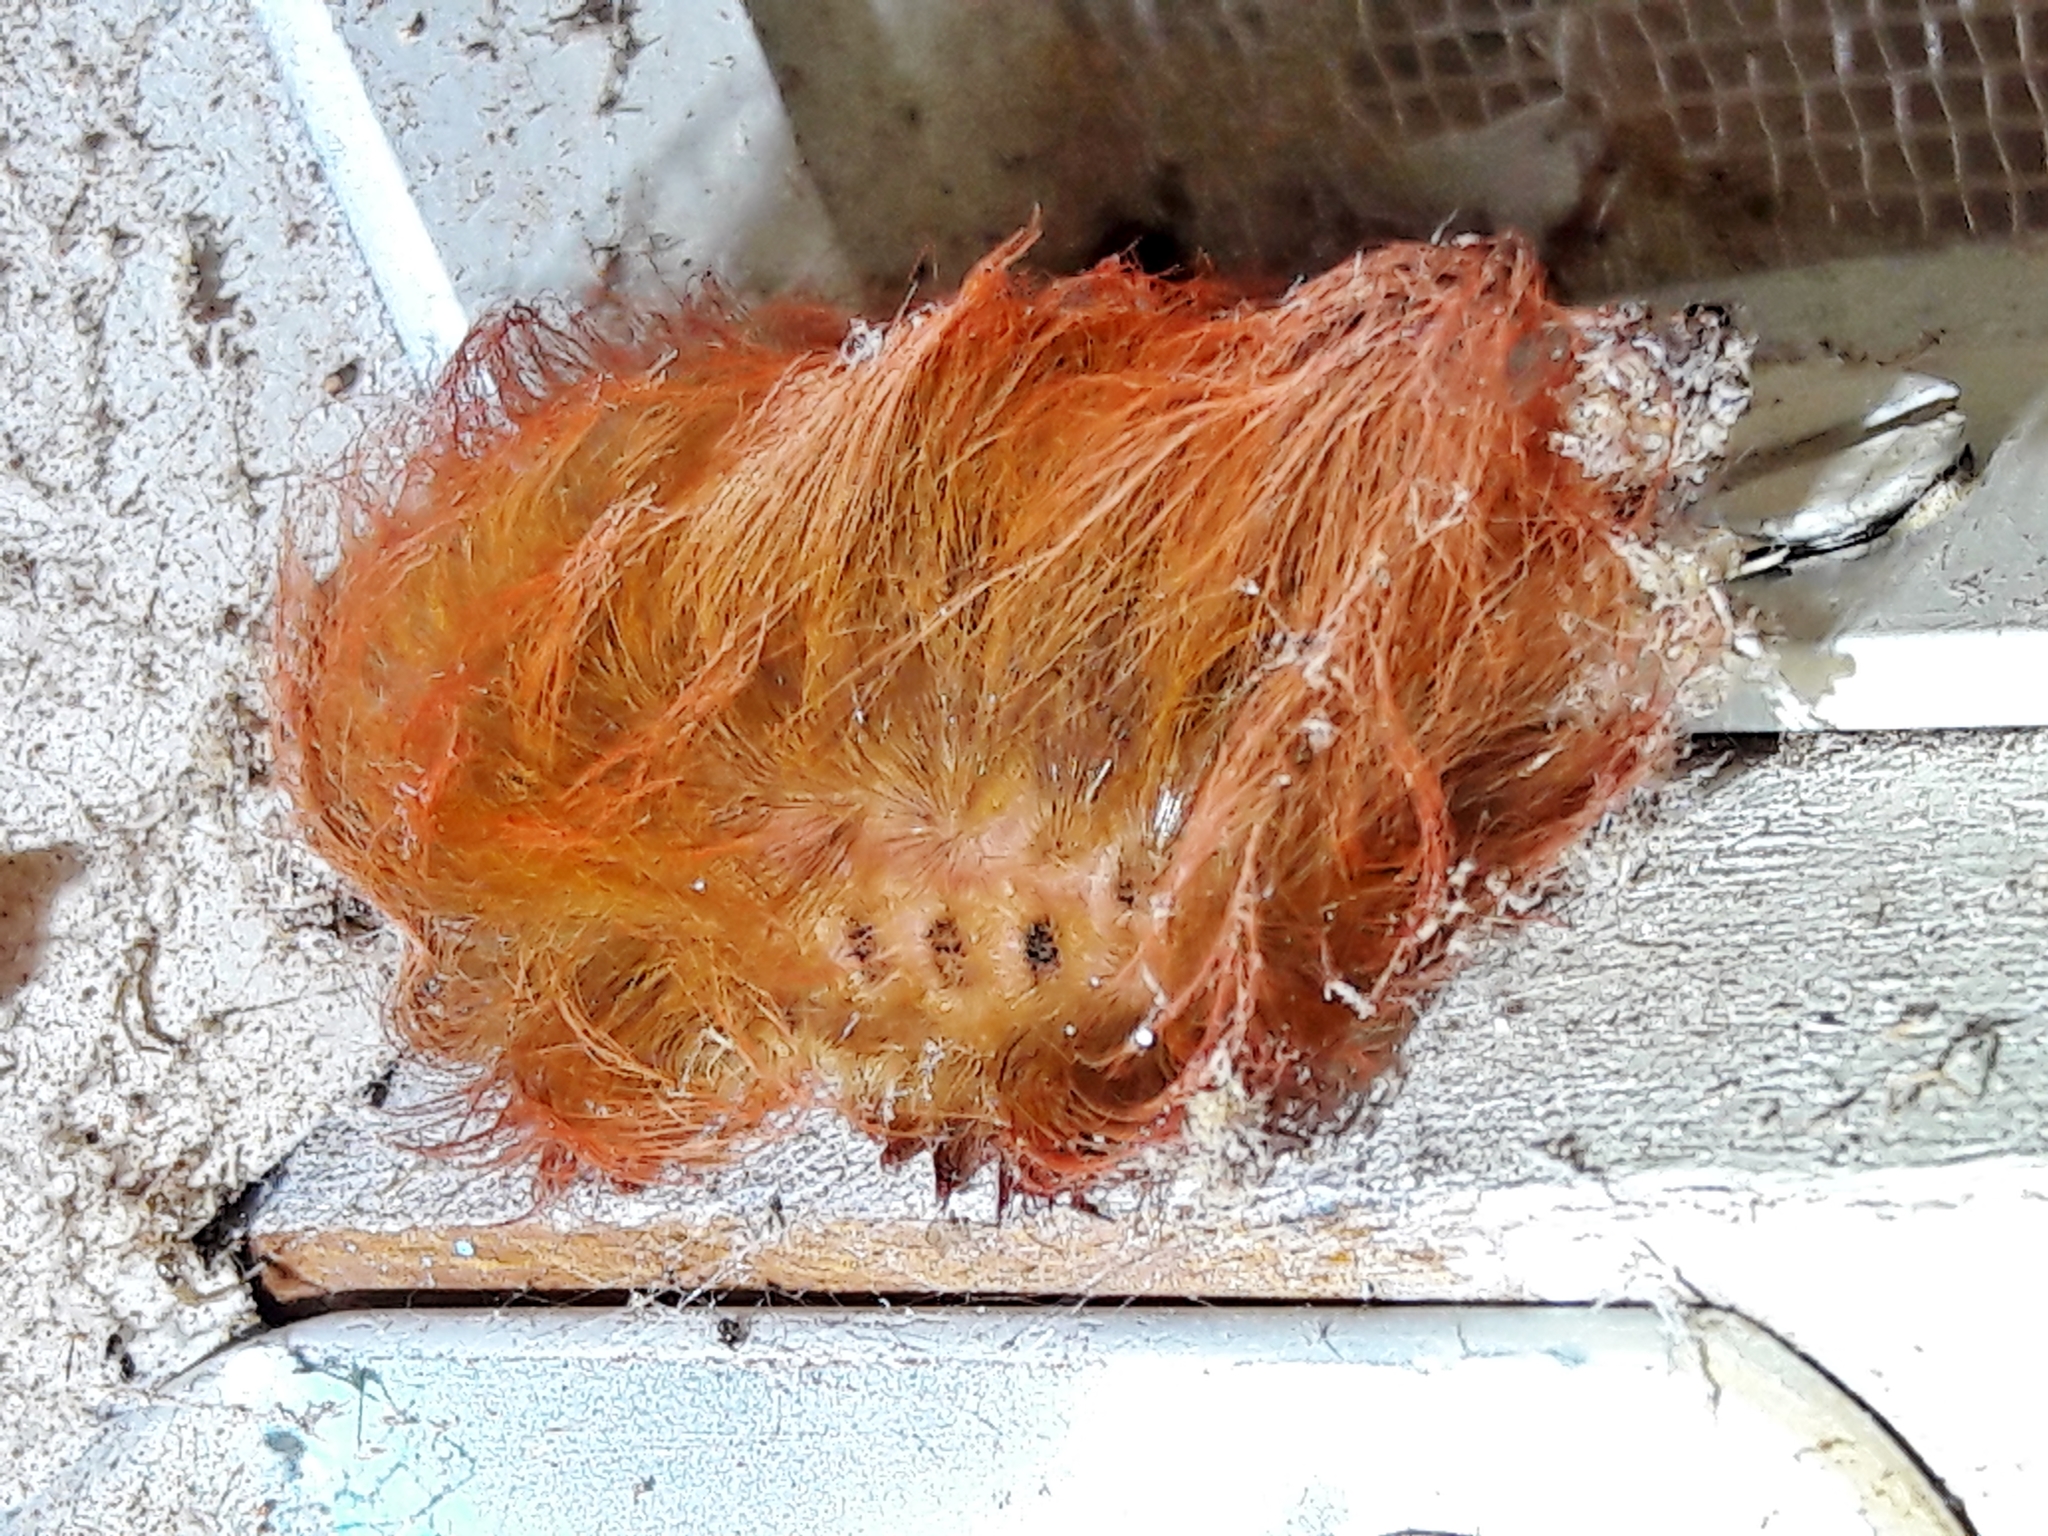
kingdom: Animalia
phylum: Arthropoda
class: Insecta
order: Lepidoptera
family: Megalopygidae
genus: Megalopyge
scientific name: Megalopyge albicollis
